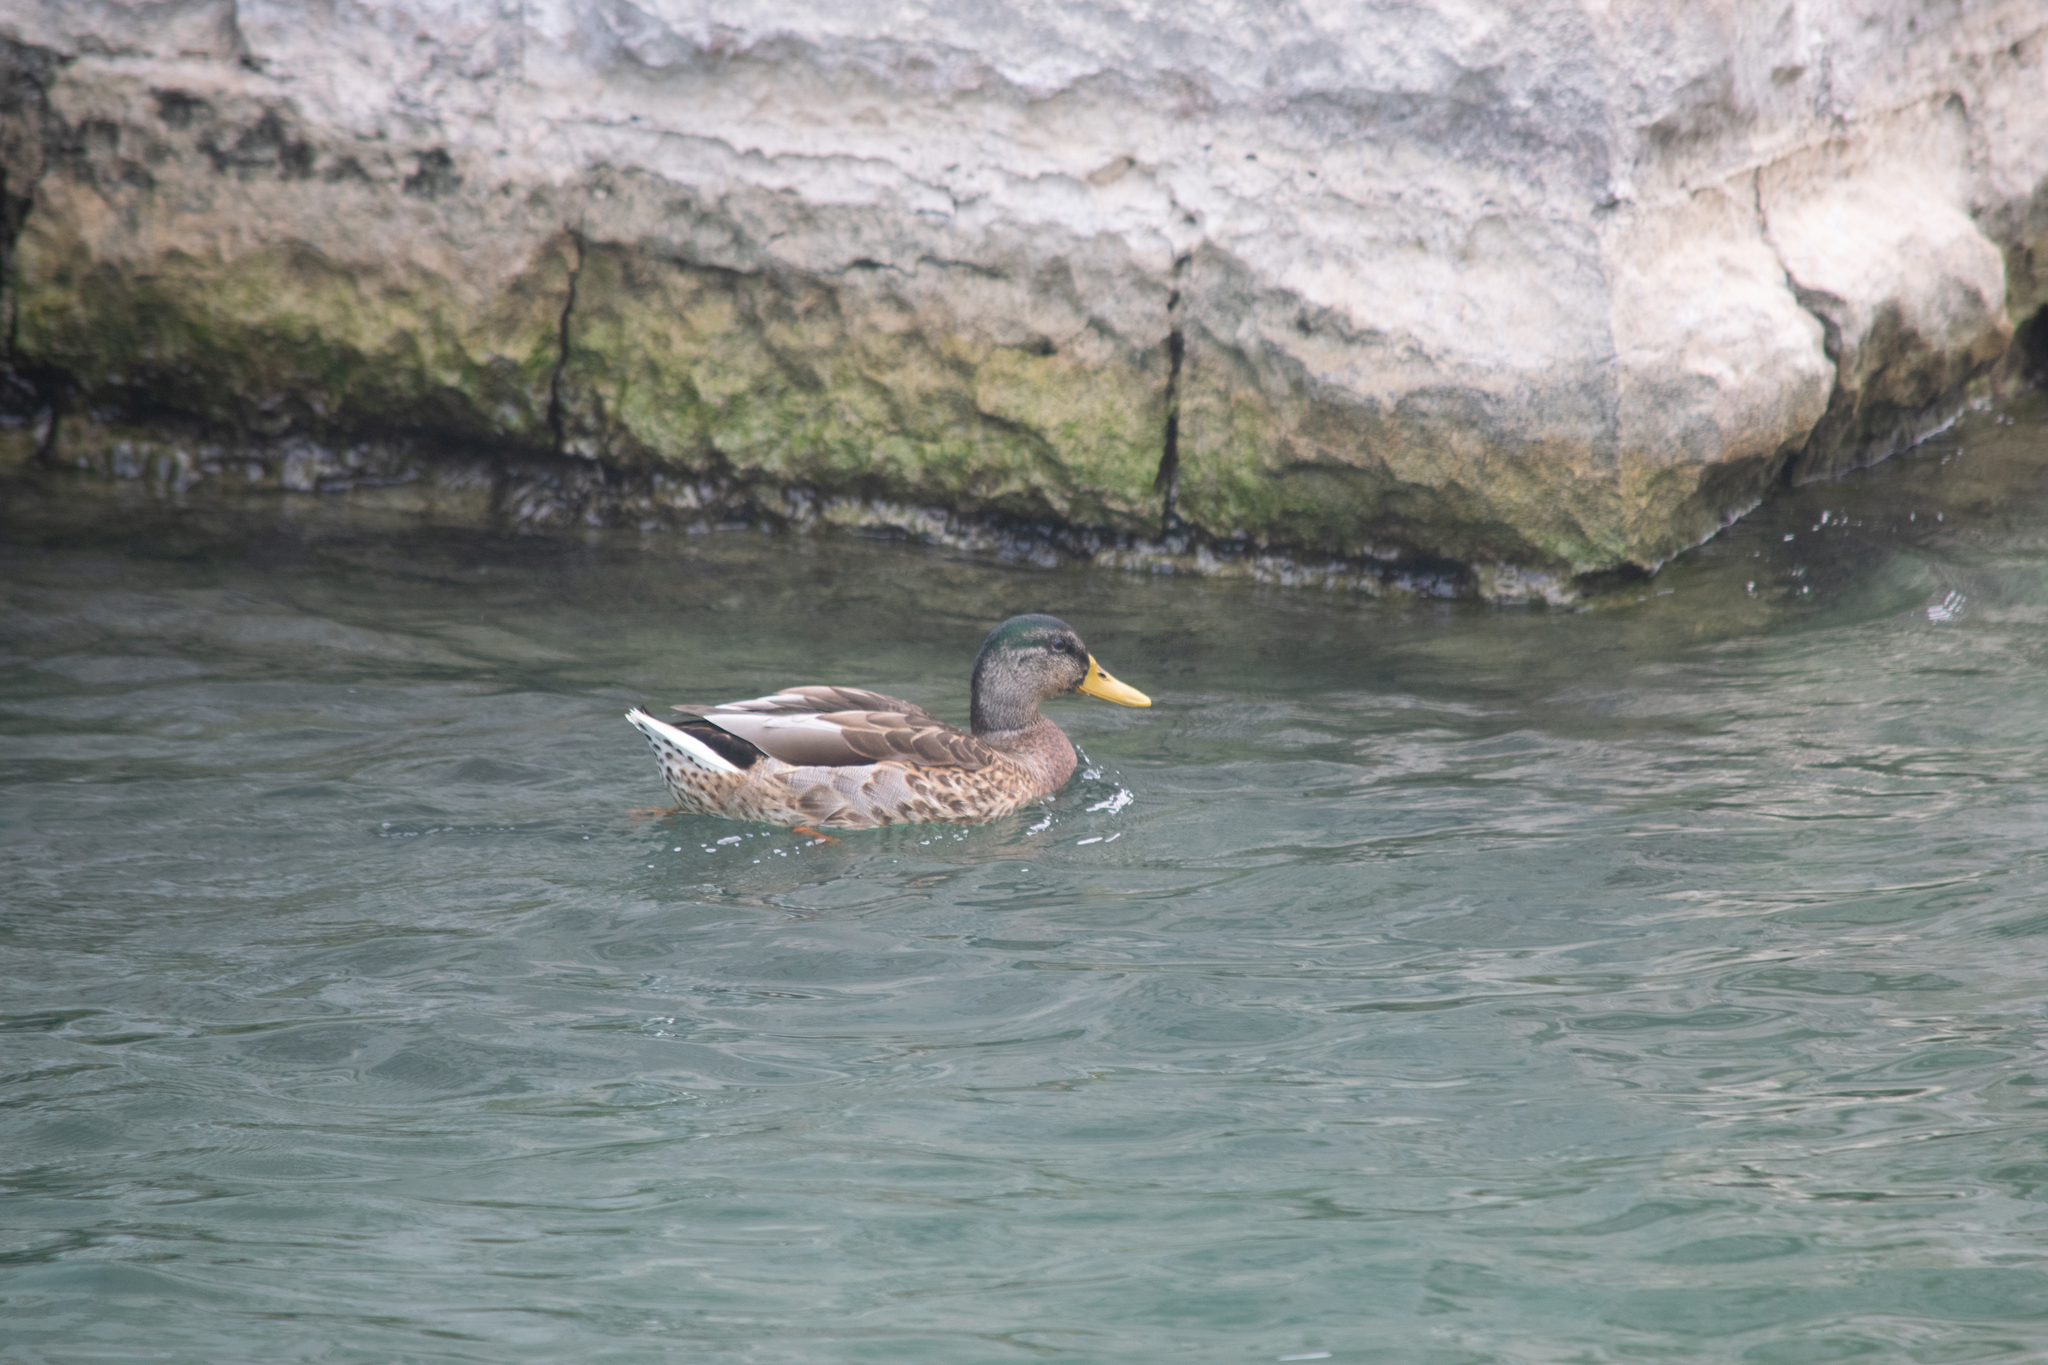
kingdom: Animalia
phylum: Chordata
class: Aves
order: Anseriformes
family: Anatidae
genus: Anas
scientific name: Anas platyrhynchos
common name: Mallard
